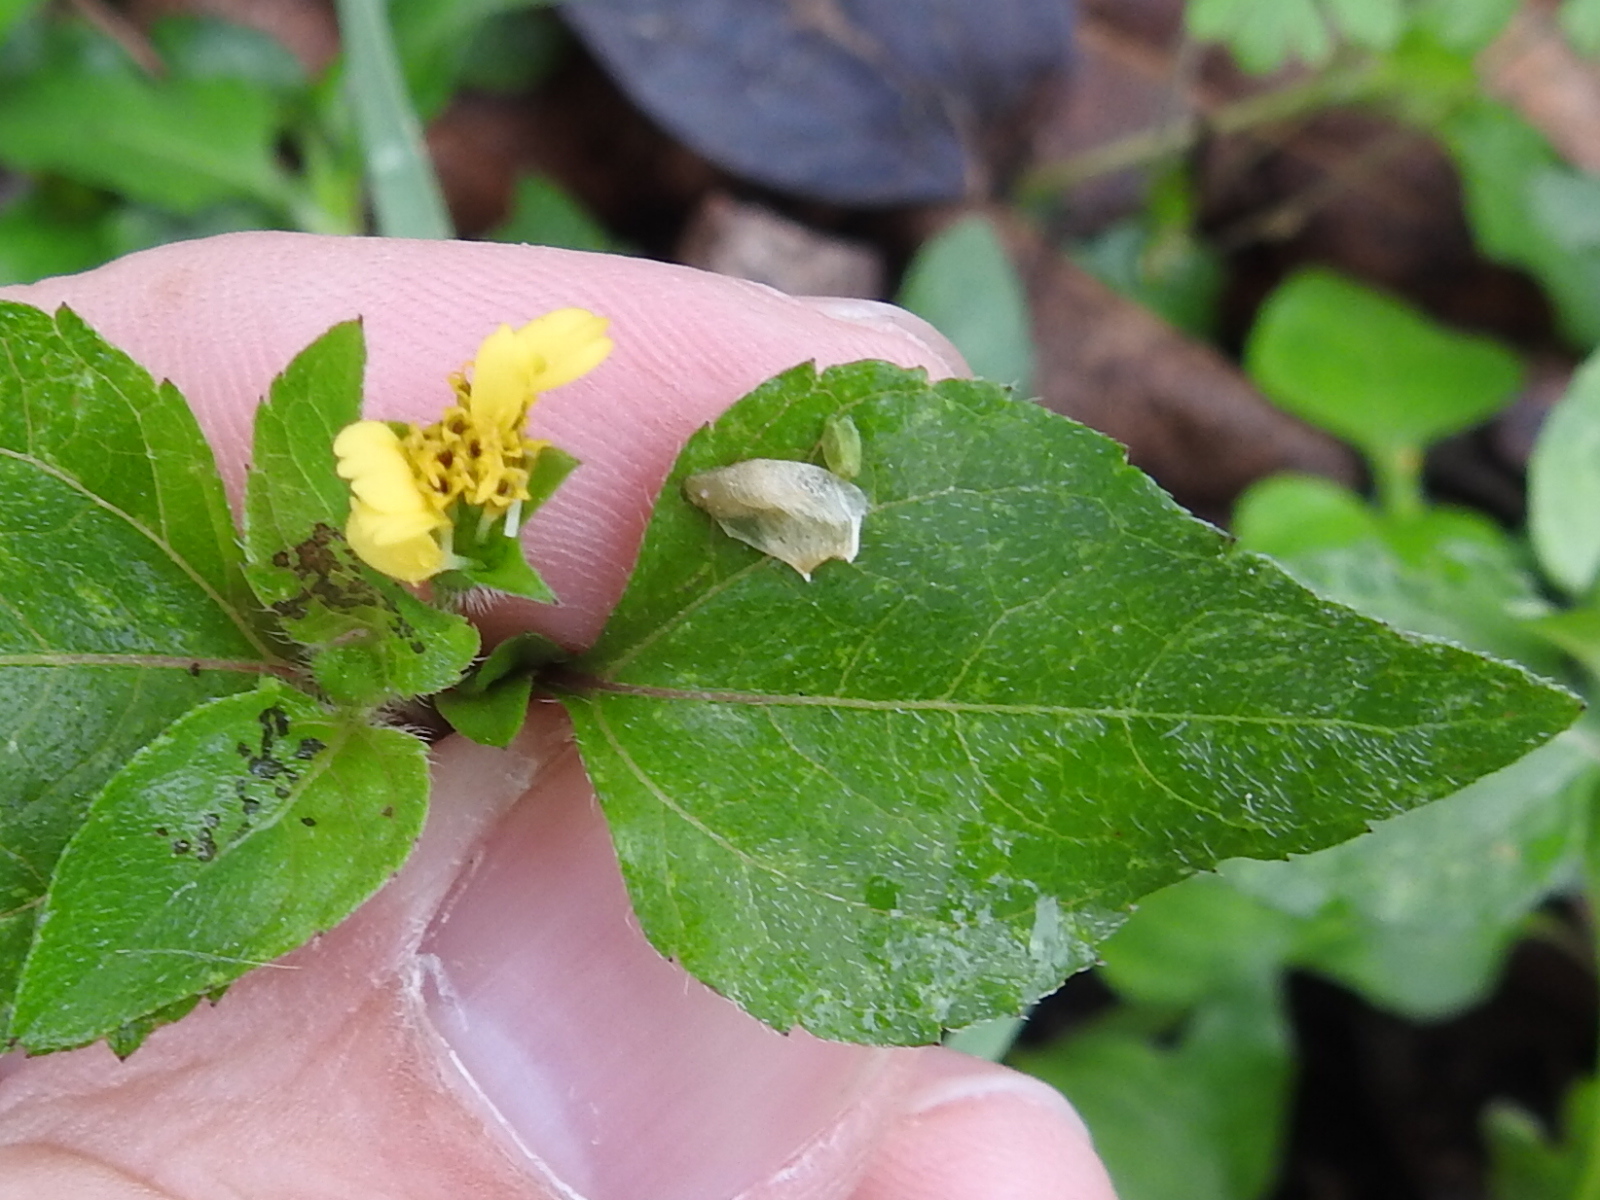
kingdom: Plantae
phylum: Tracheophyta
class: Magnoliopsida
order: Asterales
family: Asteraceae
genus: Calyptocarpus
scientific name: Calyptocarpus vialis
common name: Straggler daisy
